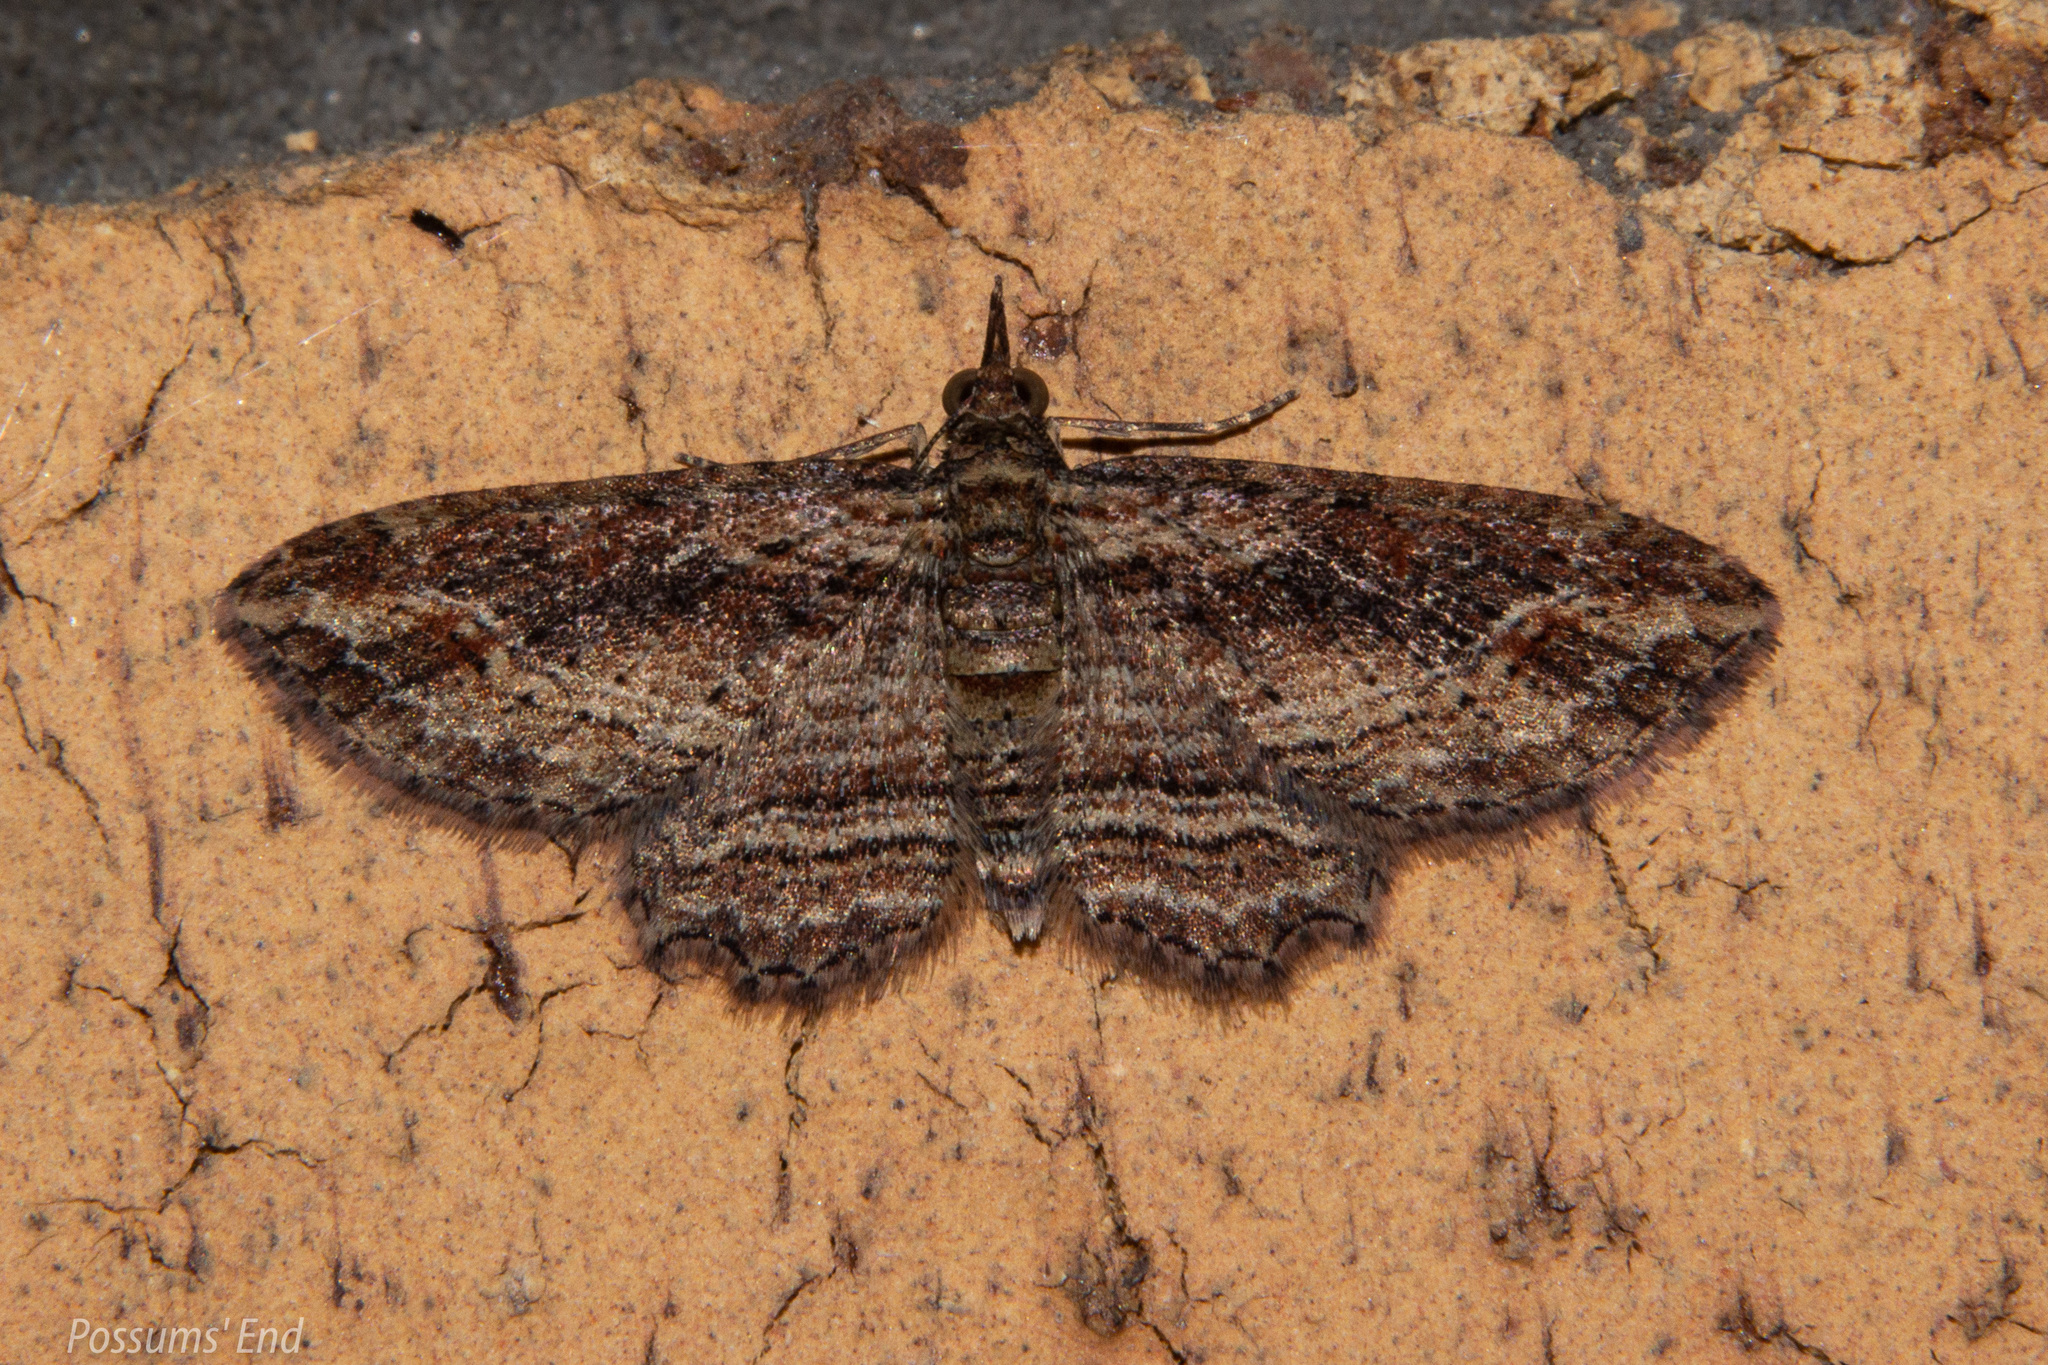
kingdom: Animalia
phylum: Arthropoda
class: Insecta
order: Lepidoptera
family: Geometridae
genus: Chloroclystis
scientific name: Chloroclystis filata
